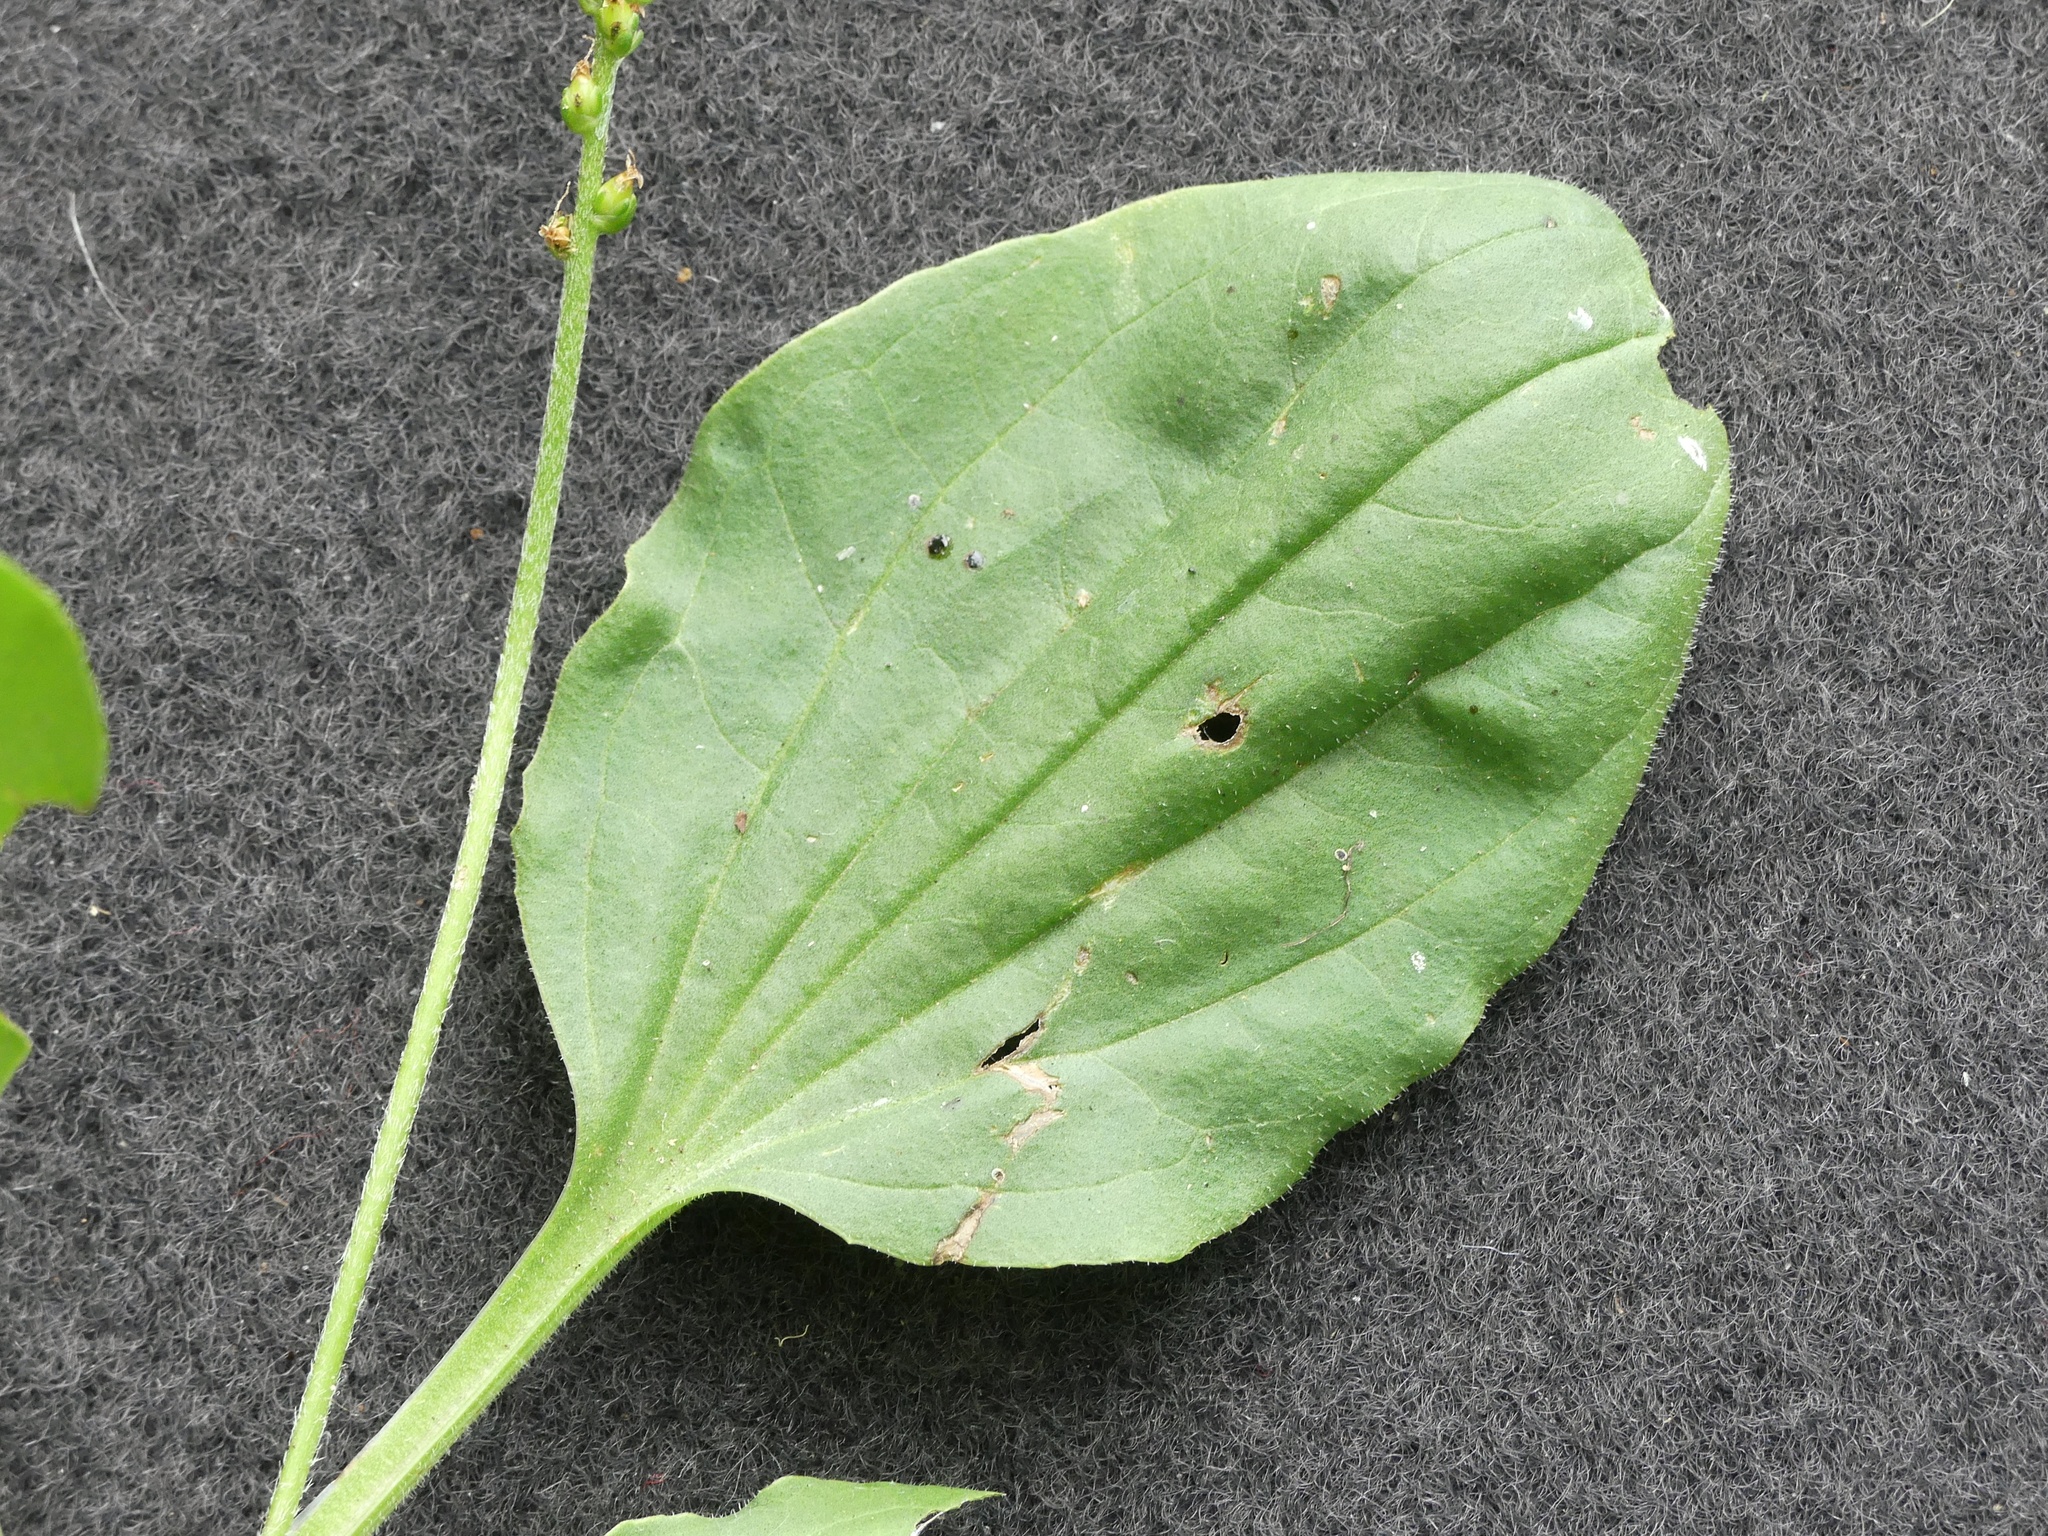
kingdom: Plantae
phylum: Tracheophyta
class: Magnoliopsida
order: Lamiales
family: Plantaginaceae
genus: Plantago
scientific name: Plantago major
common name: Common plantain
